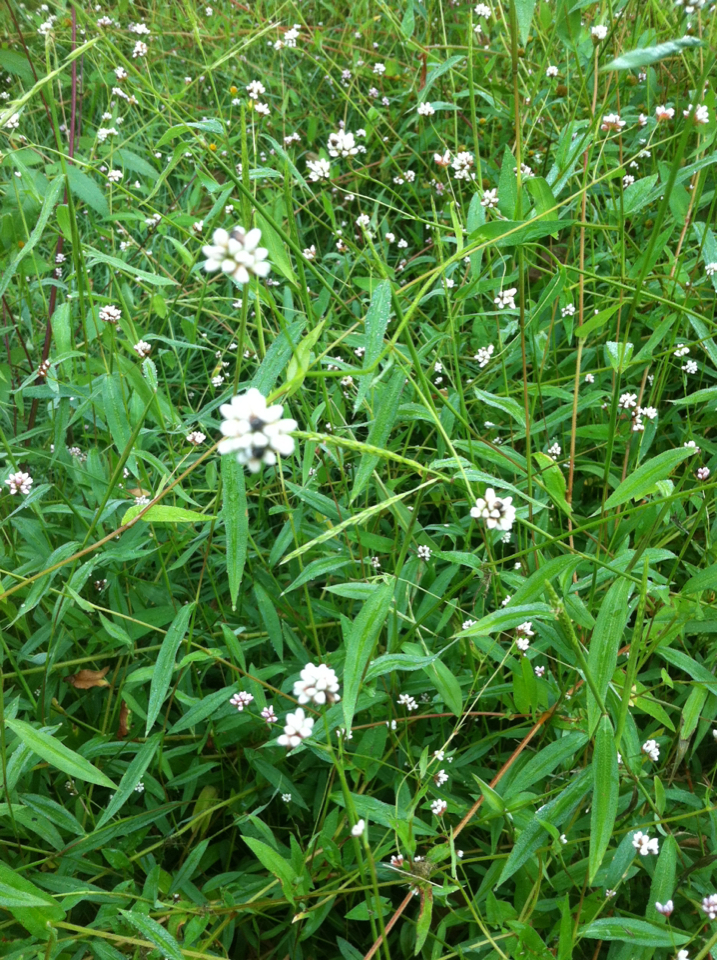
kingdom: Plantae
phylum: Tracheophyta
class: Magnoliopsida
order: Caryophyllales
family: Polygonaceae
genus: Persicaria
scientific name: Persicaria sagittata
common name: American tearthumb
